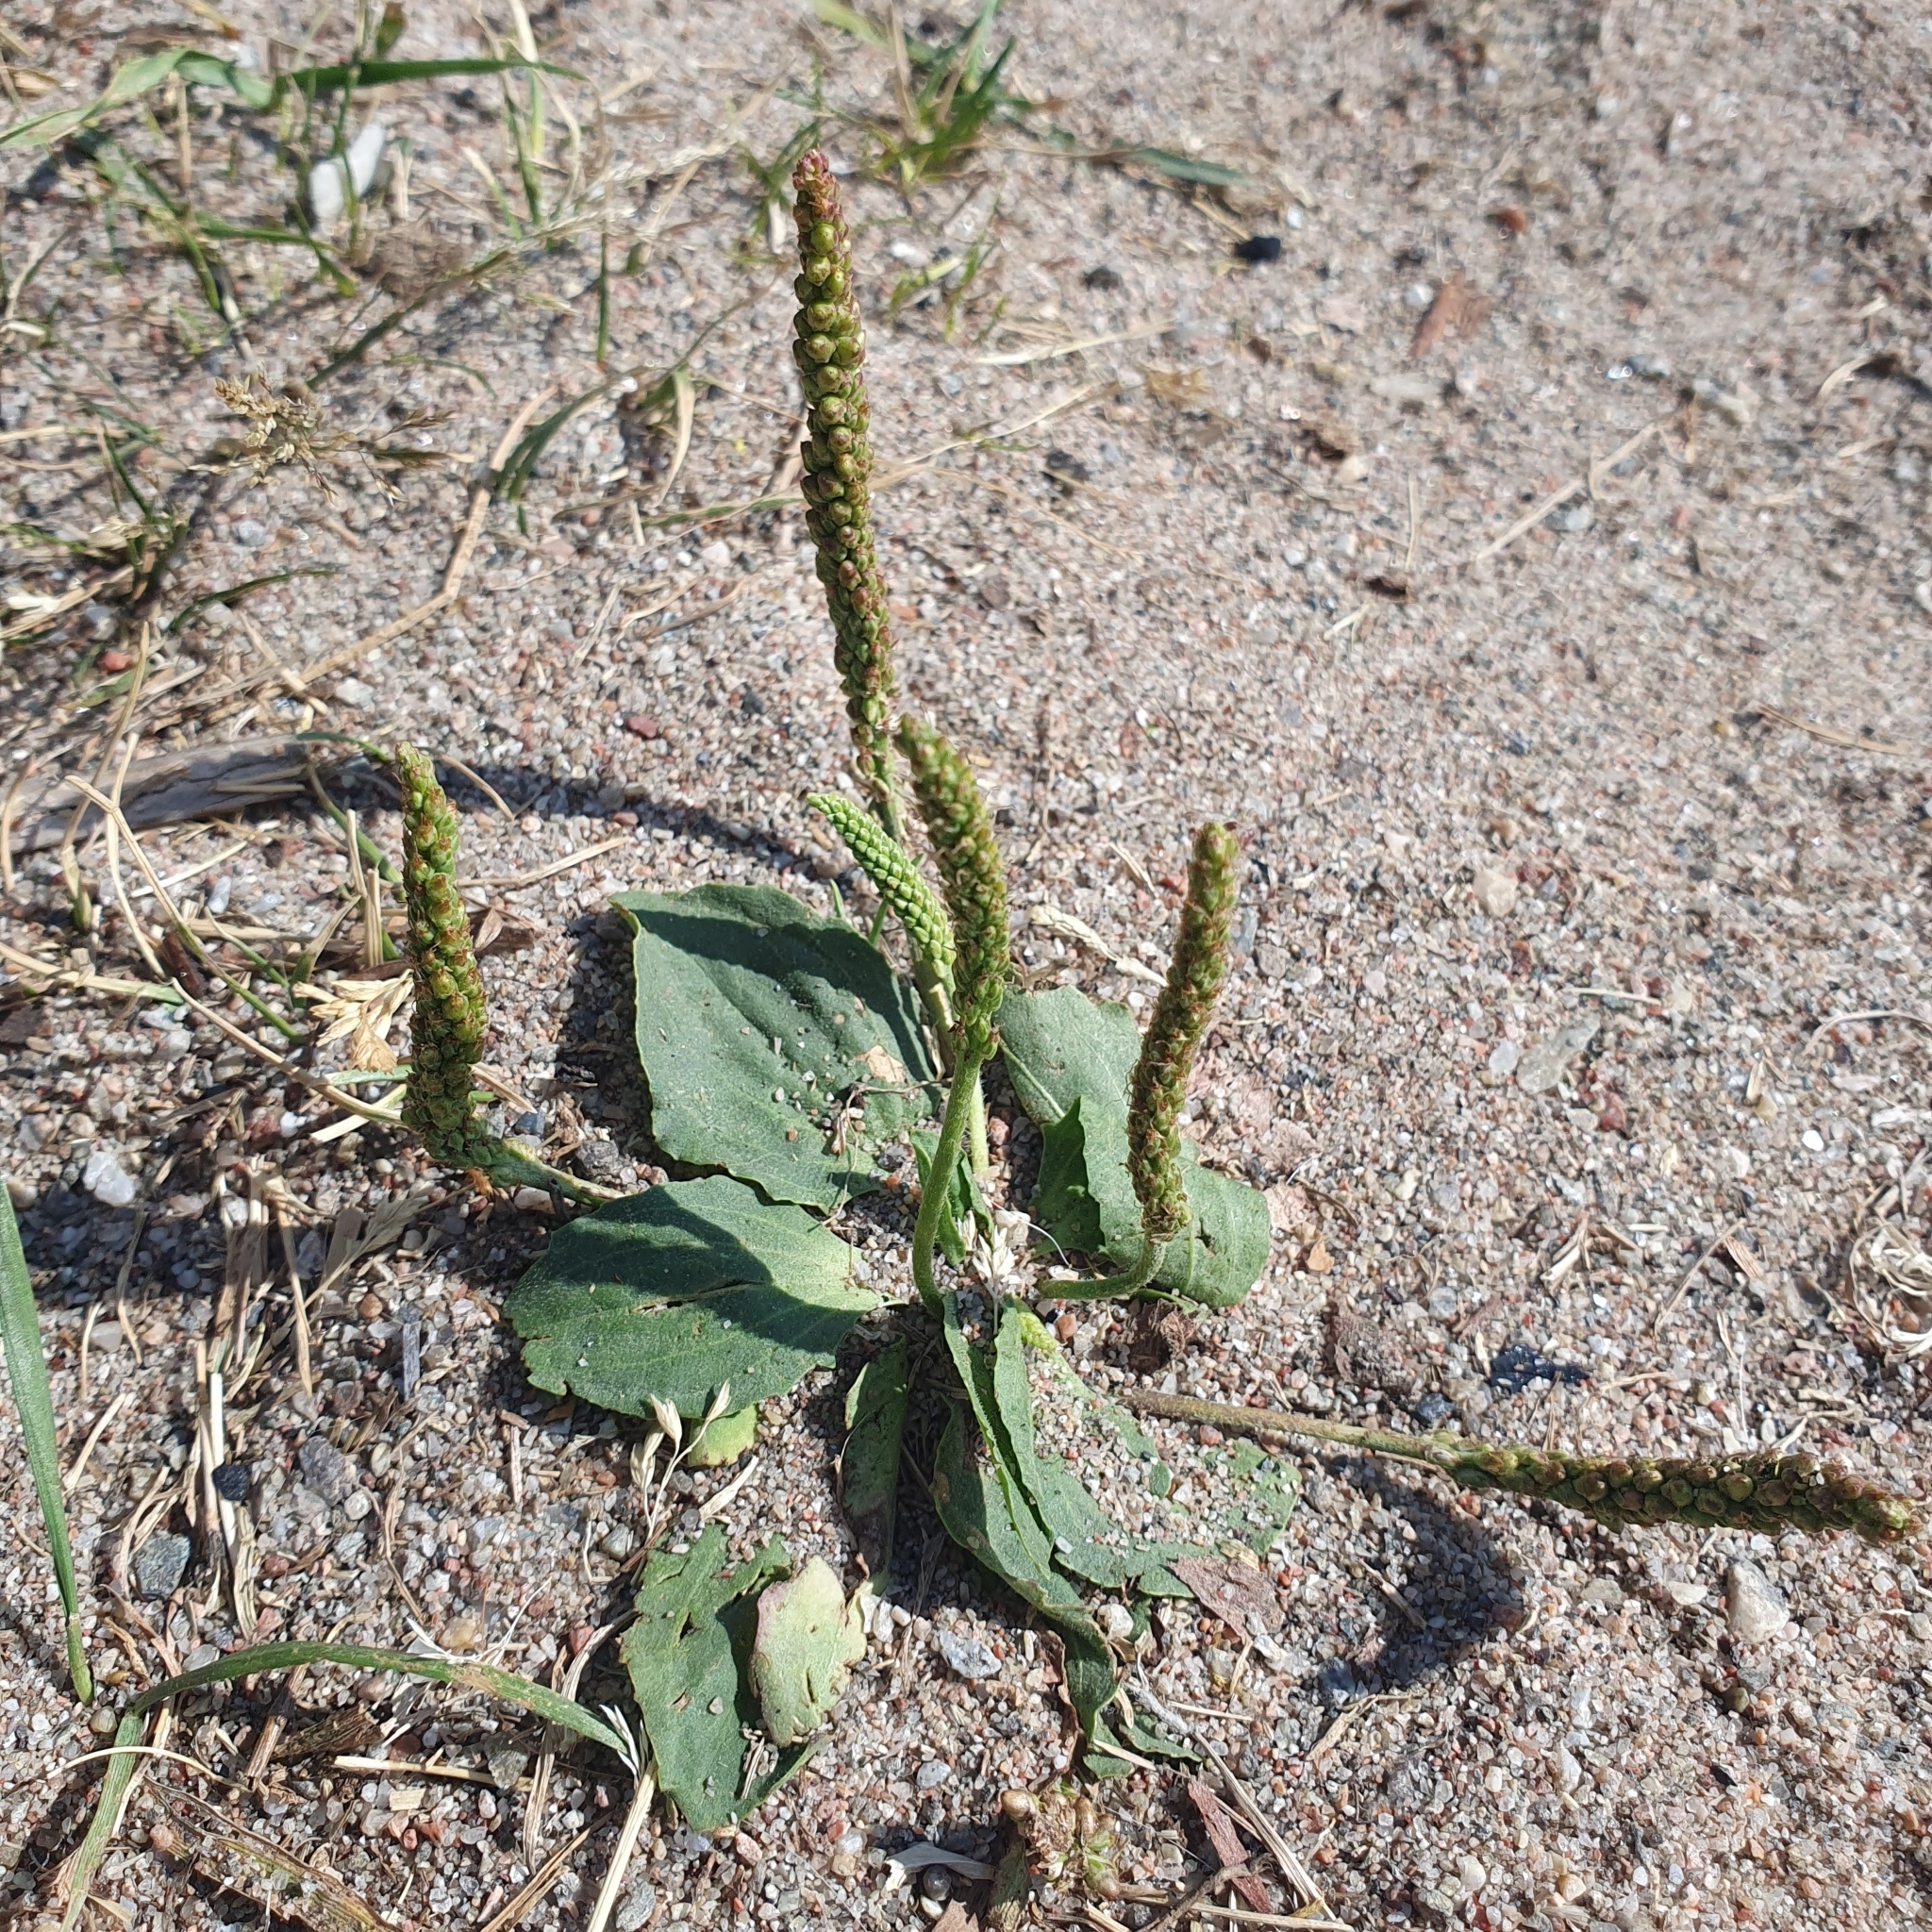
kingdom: Plantae
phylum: Tracheophyta
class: Magnoliopsida
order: Lamiales
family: Plantaginaceae
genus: Plantago
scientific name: Plantago major
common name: Common plantain
